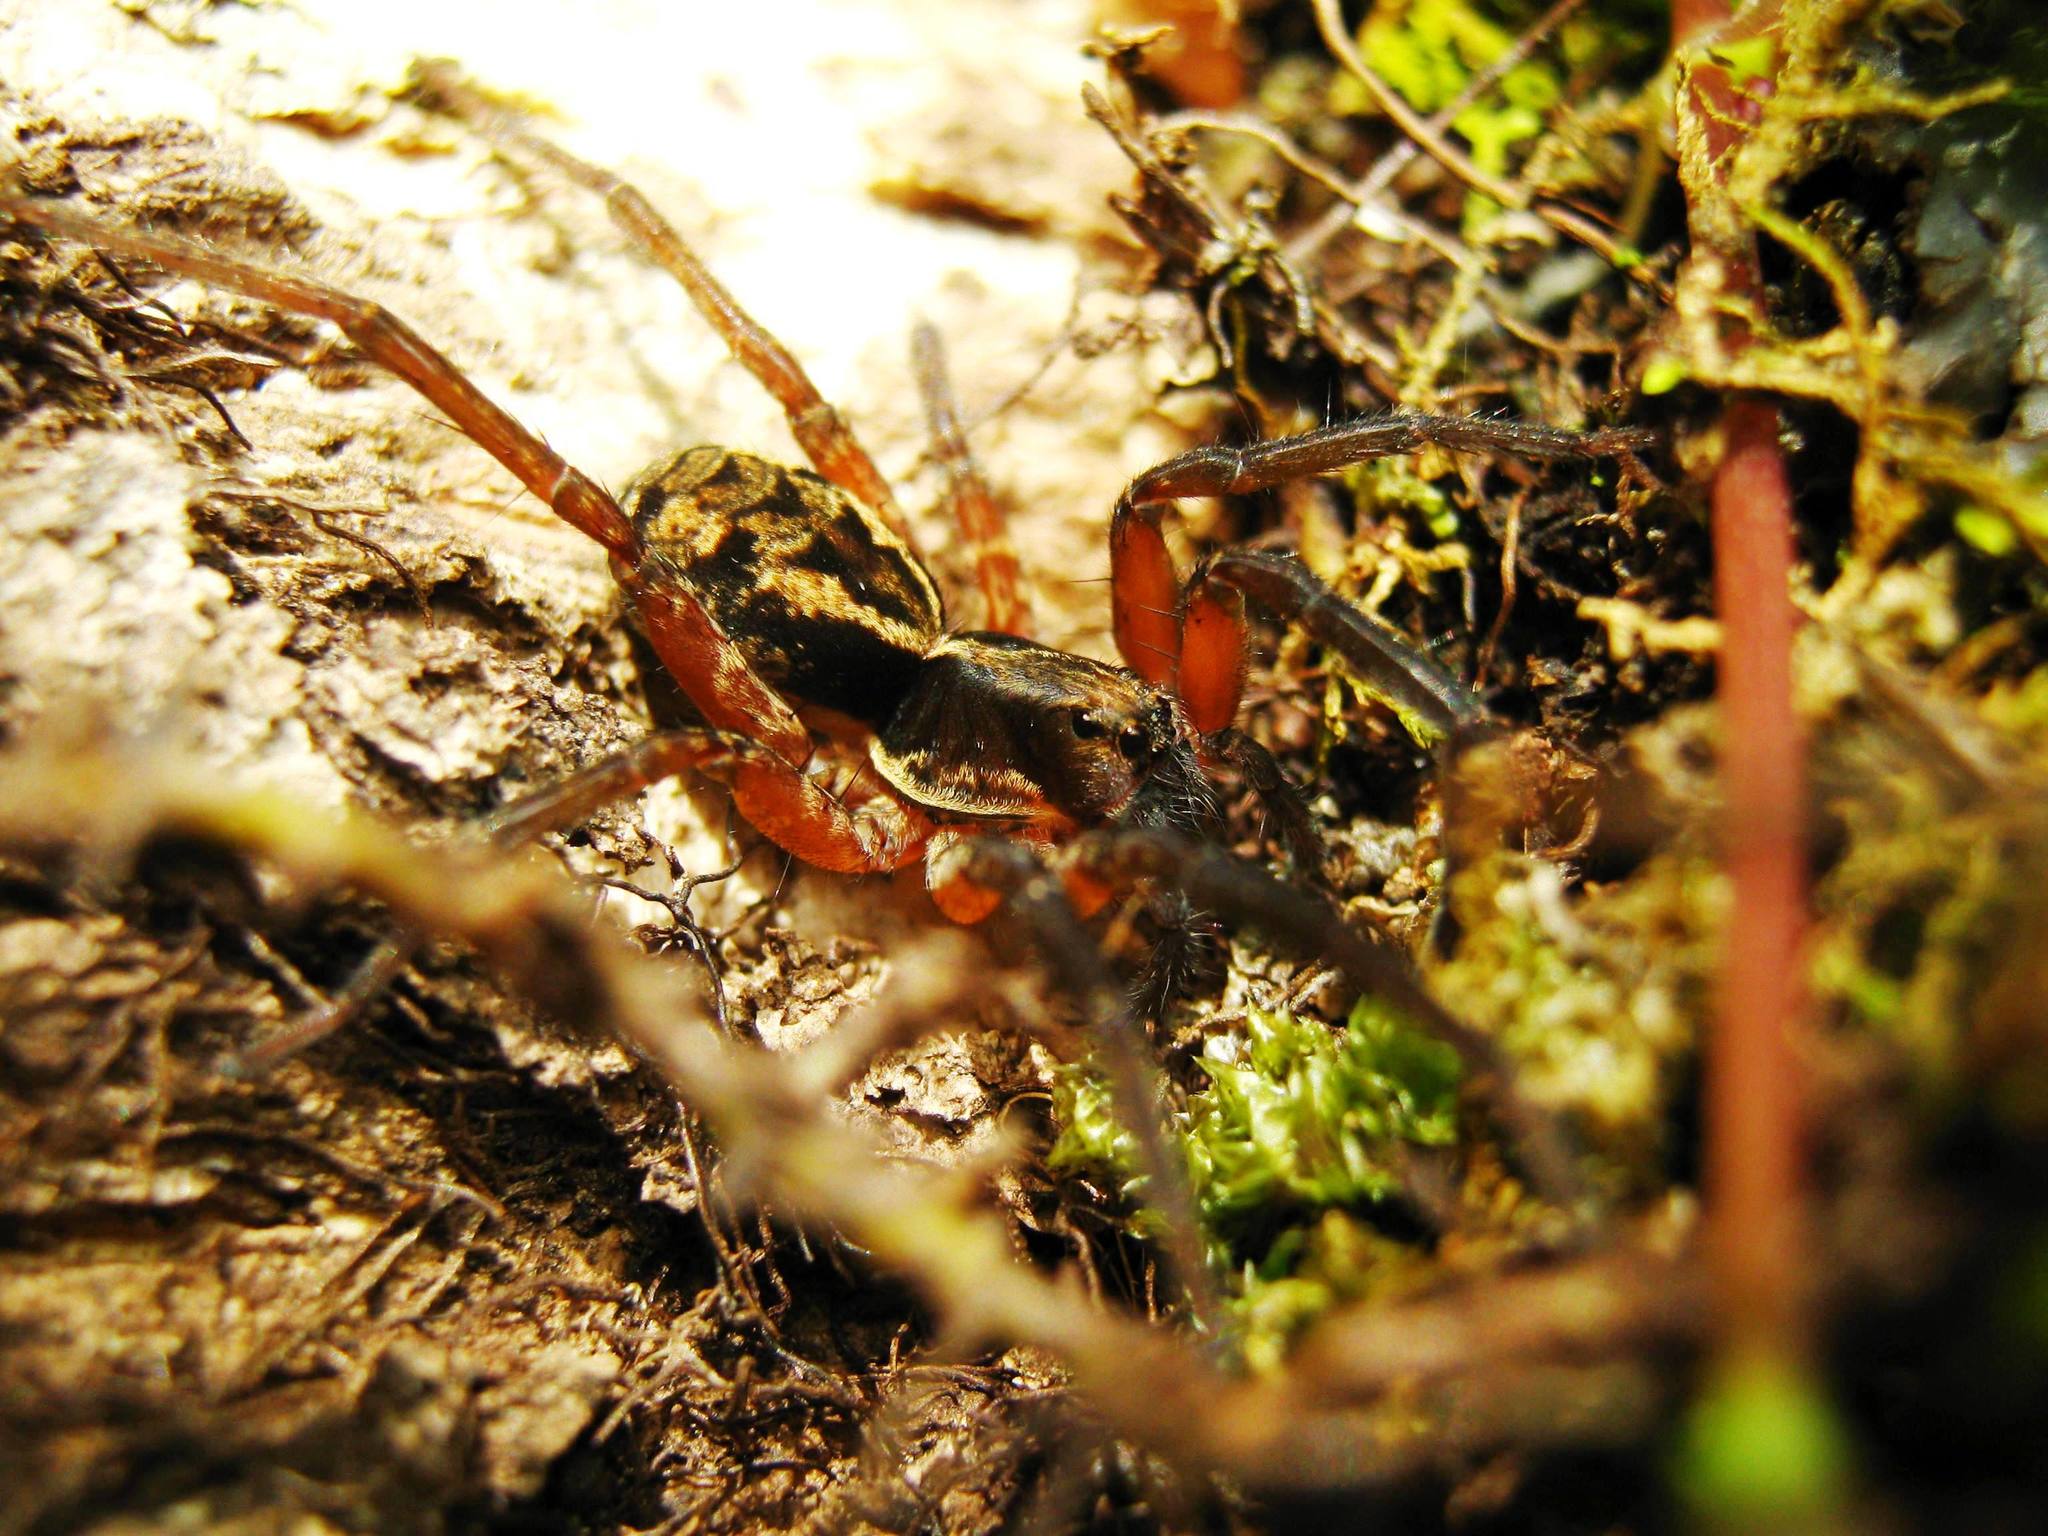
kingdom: Animalia
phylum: Arthropoda
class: Arachnida
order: Araneae
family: Lycosidae
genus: Lycosa
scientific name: Lycosa transversa
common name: Wolf spiders
